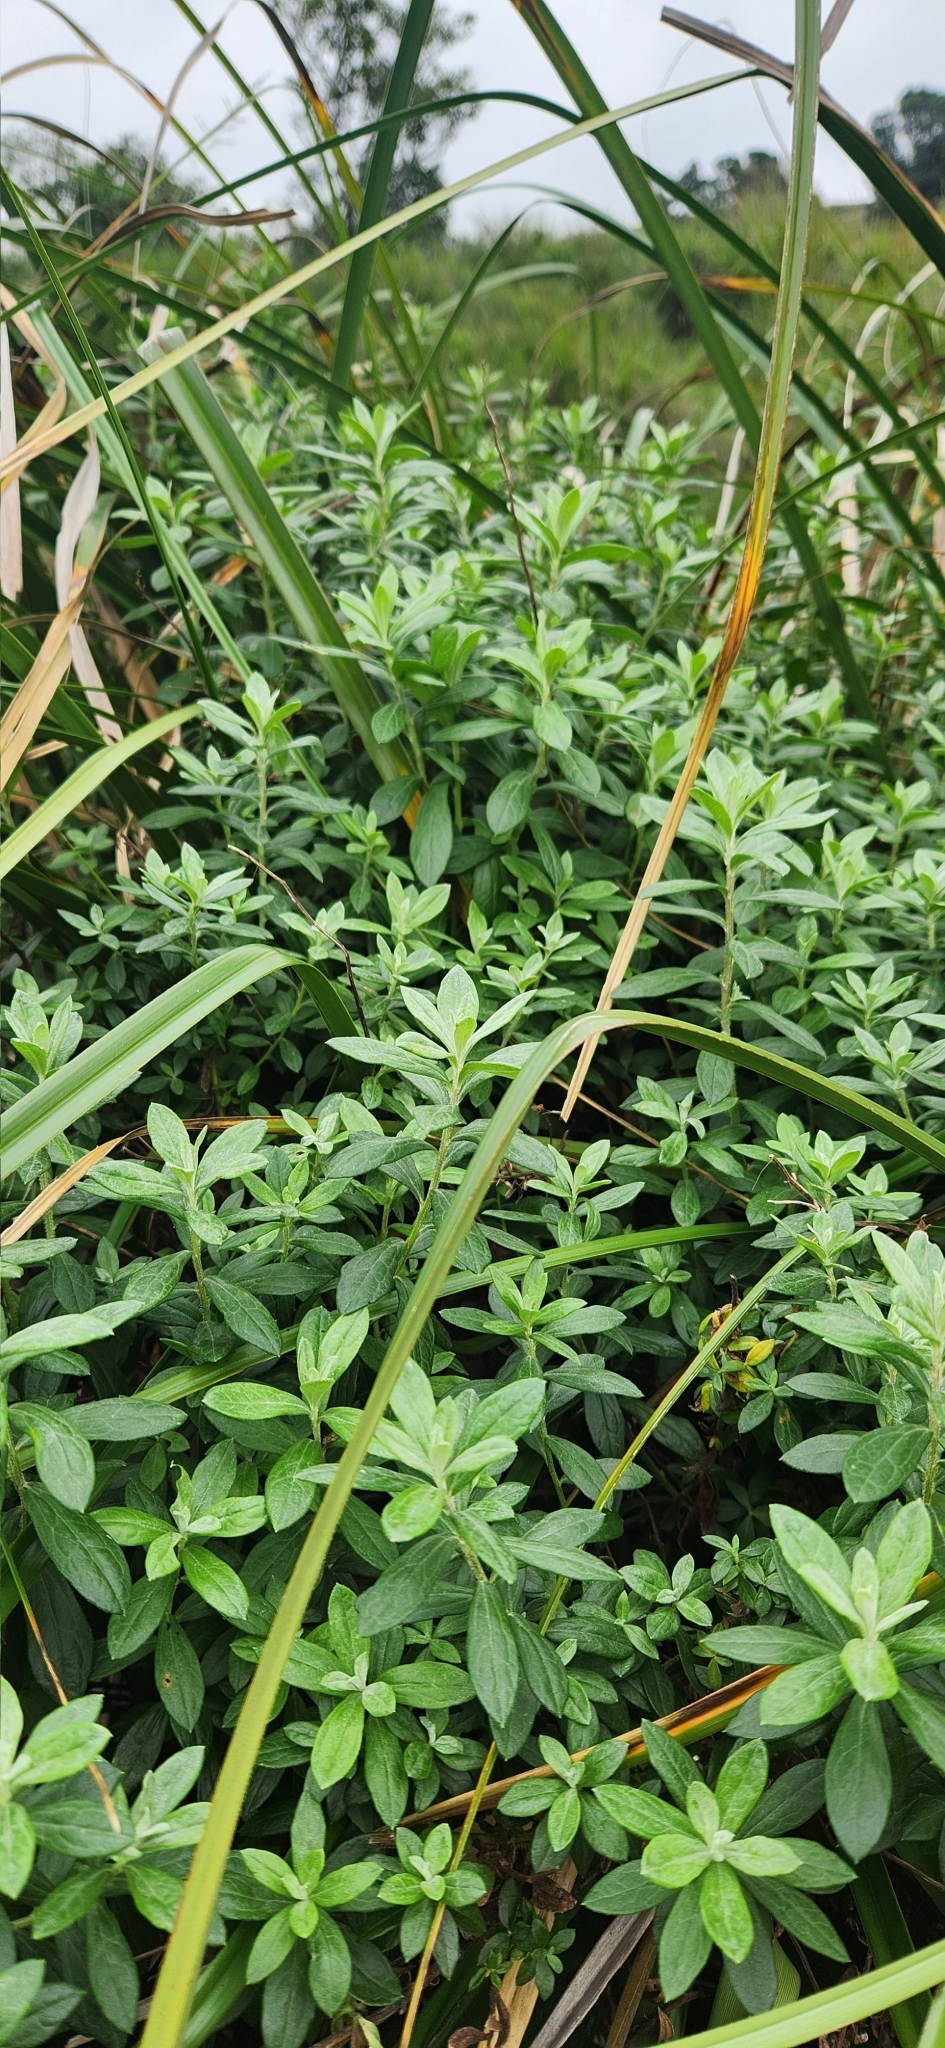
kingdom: Plantae
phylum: Tracheophyta
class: Magnoliopsida
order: Asterales
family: Asteraceae
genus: Baccharis
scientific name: Baccharis palustris
